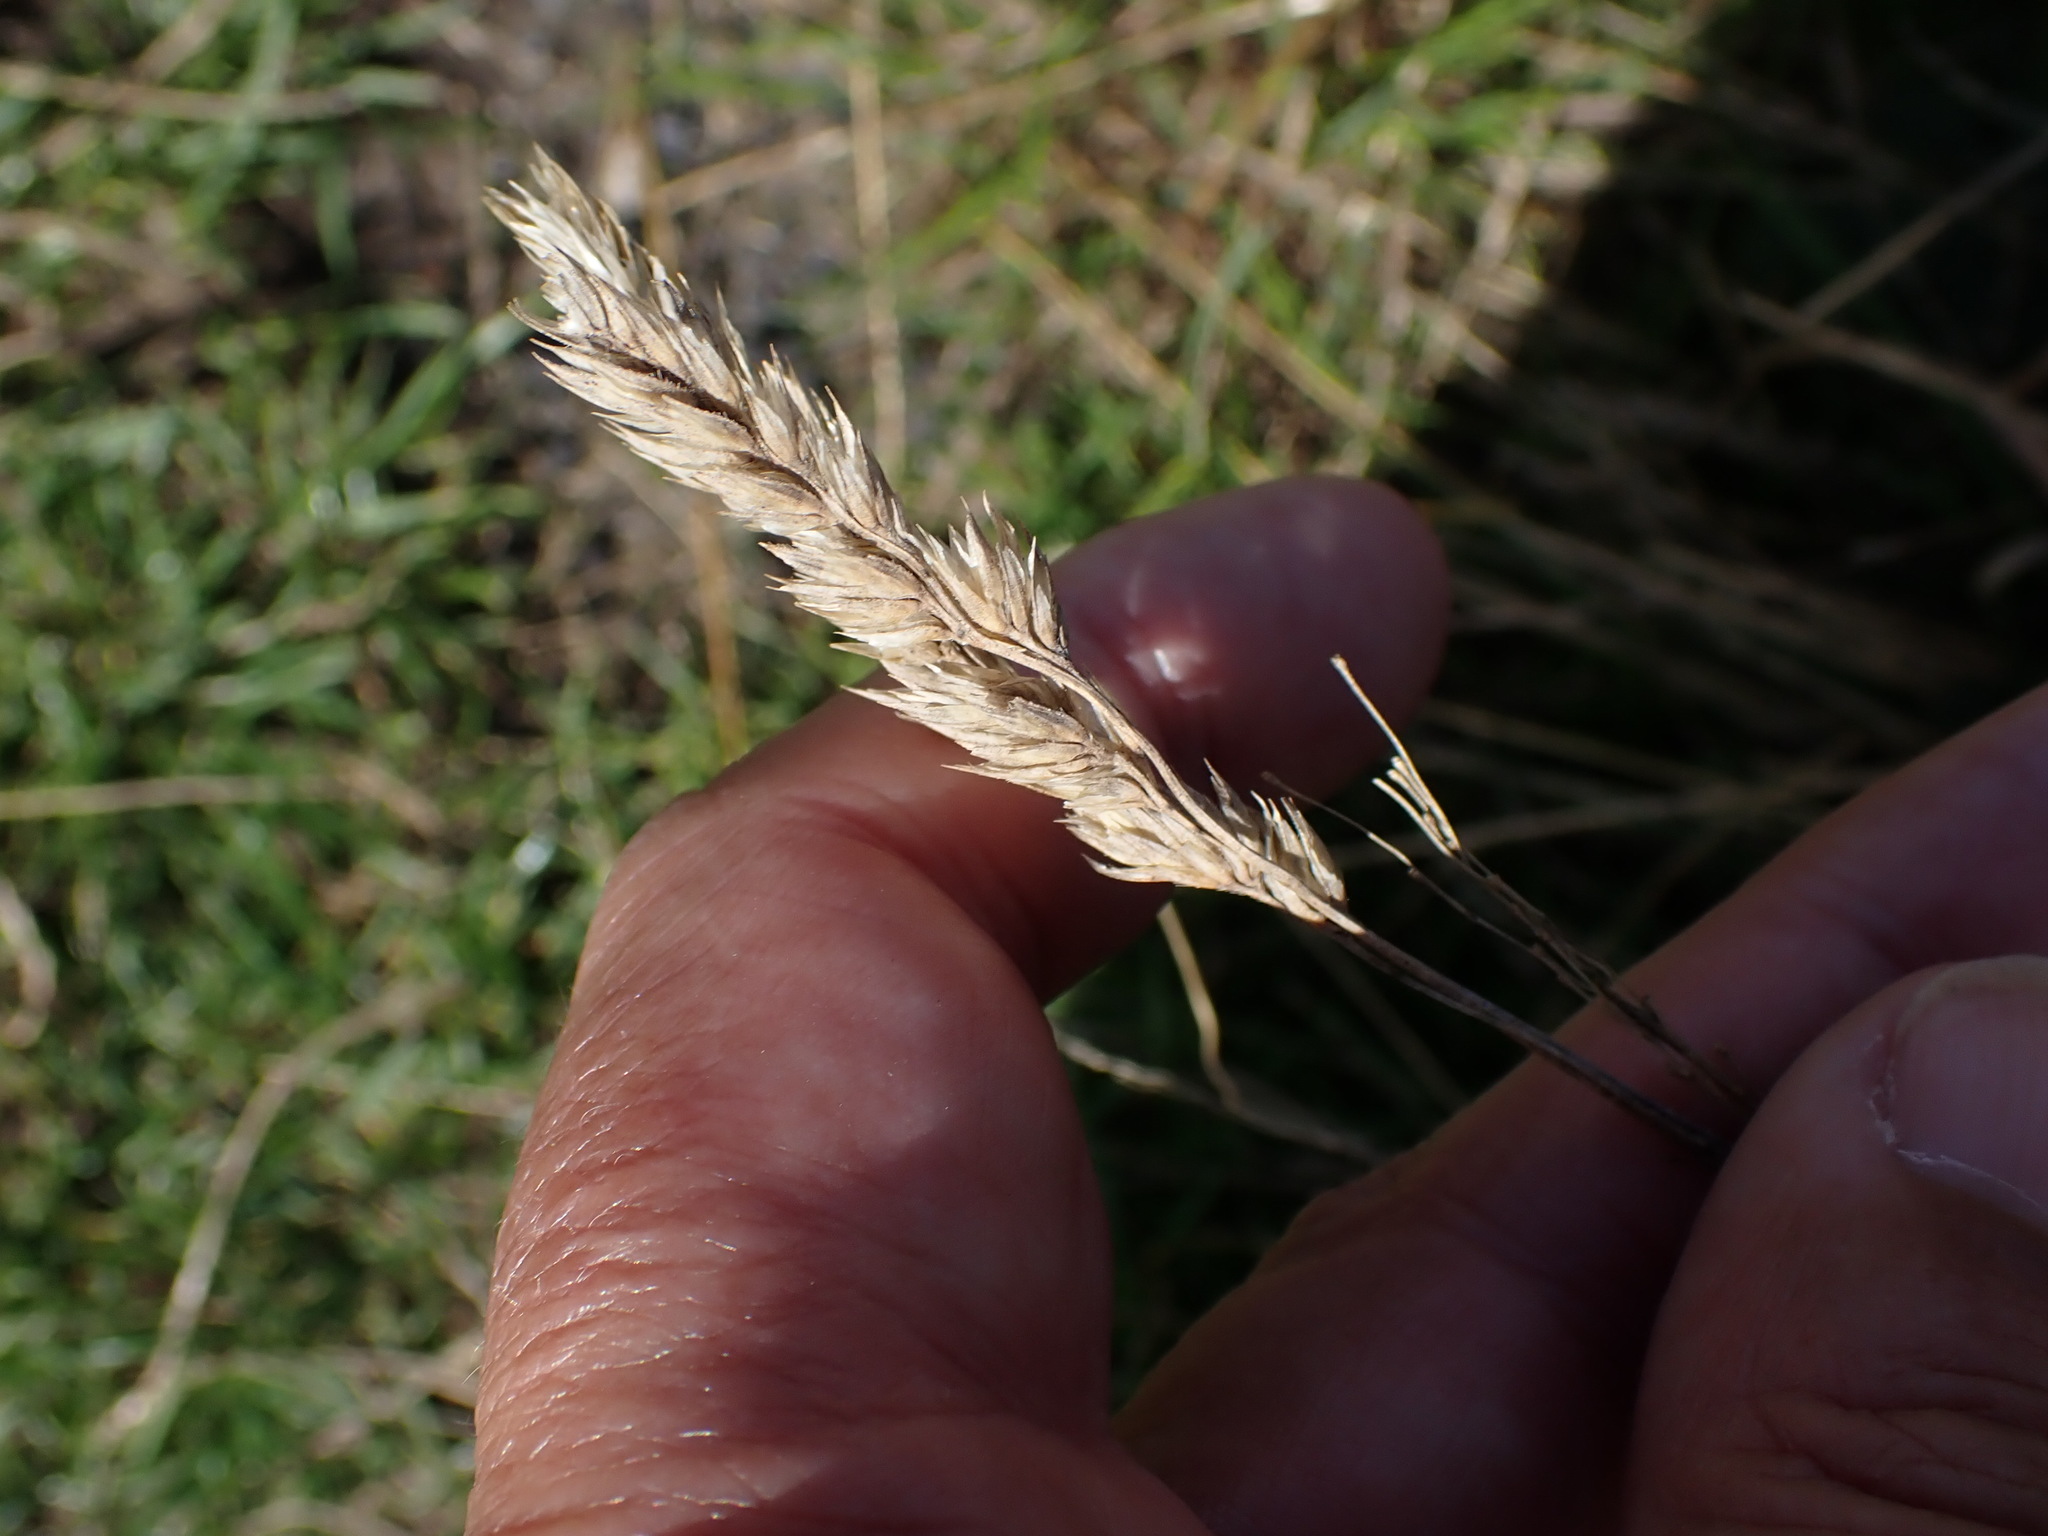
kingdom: Plantae
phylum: Tracheophyta
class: Liliopsida
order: Poales
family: Poaceae
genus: Dactylis
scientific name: Dactylis glomerata
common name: Orchardgrass
